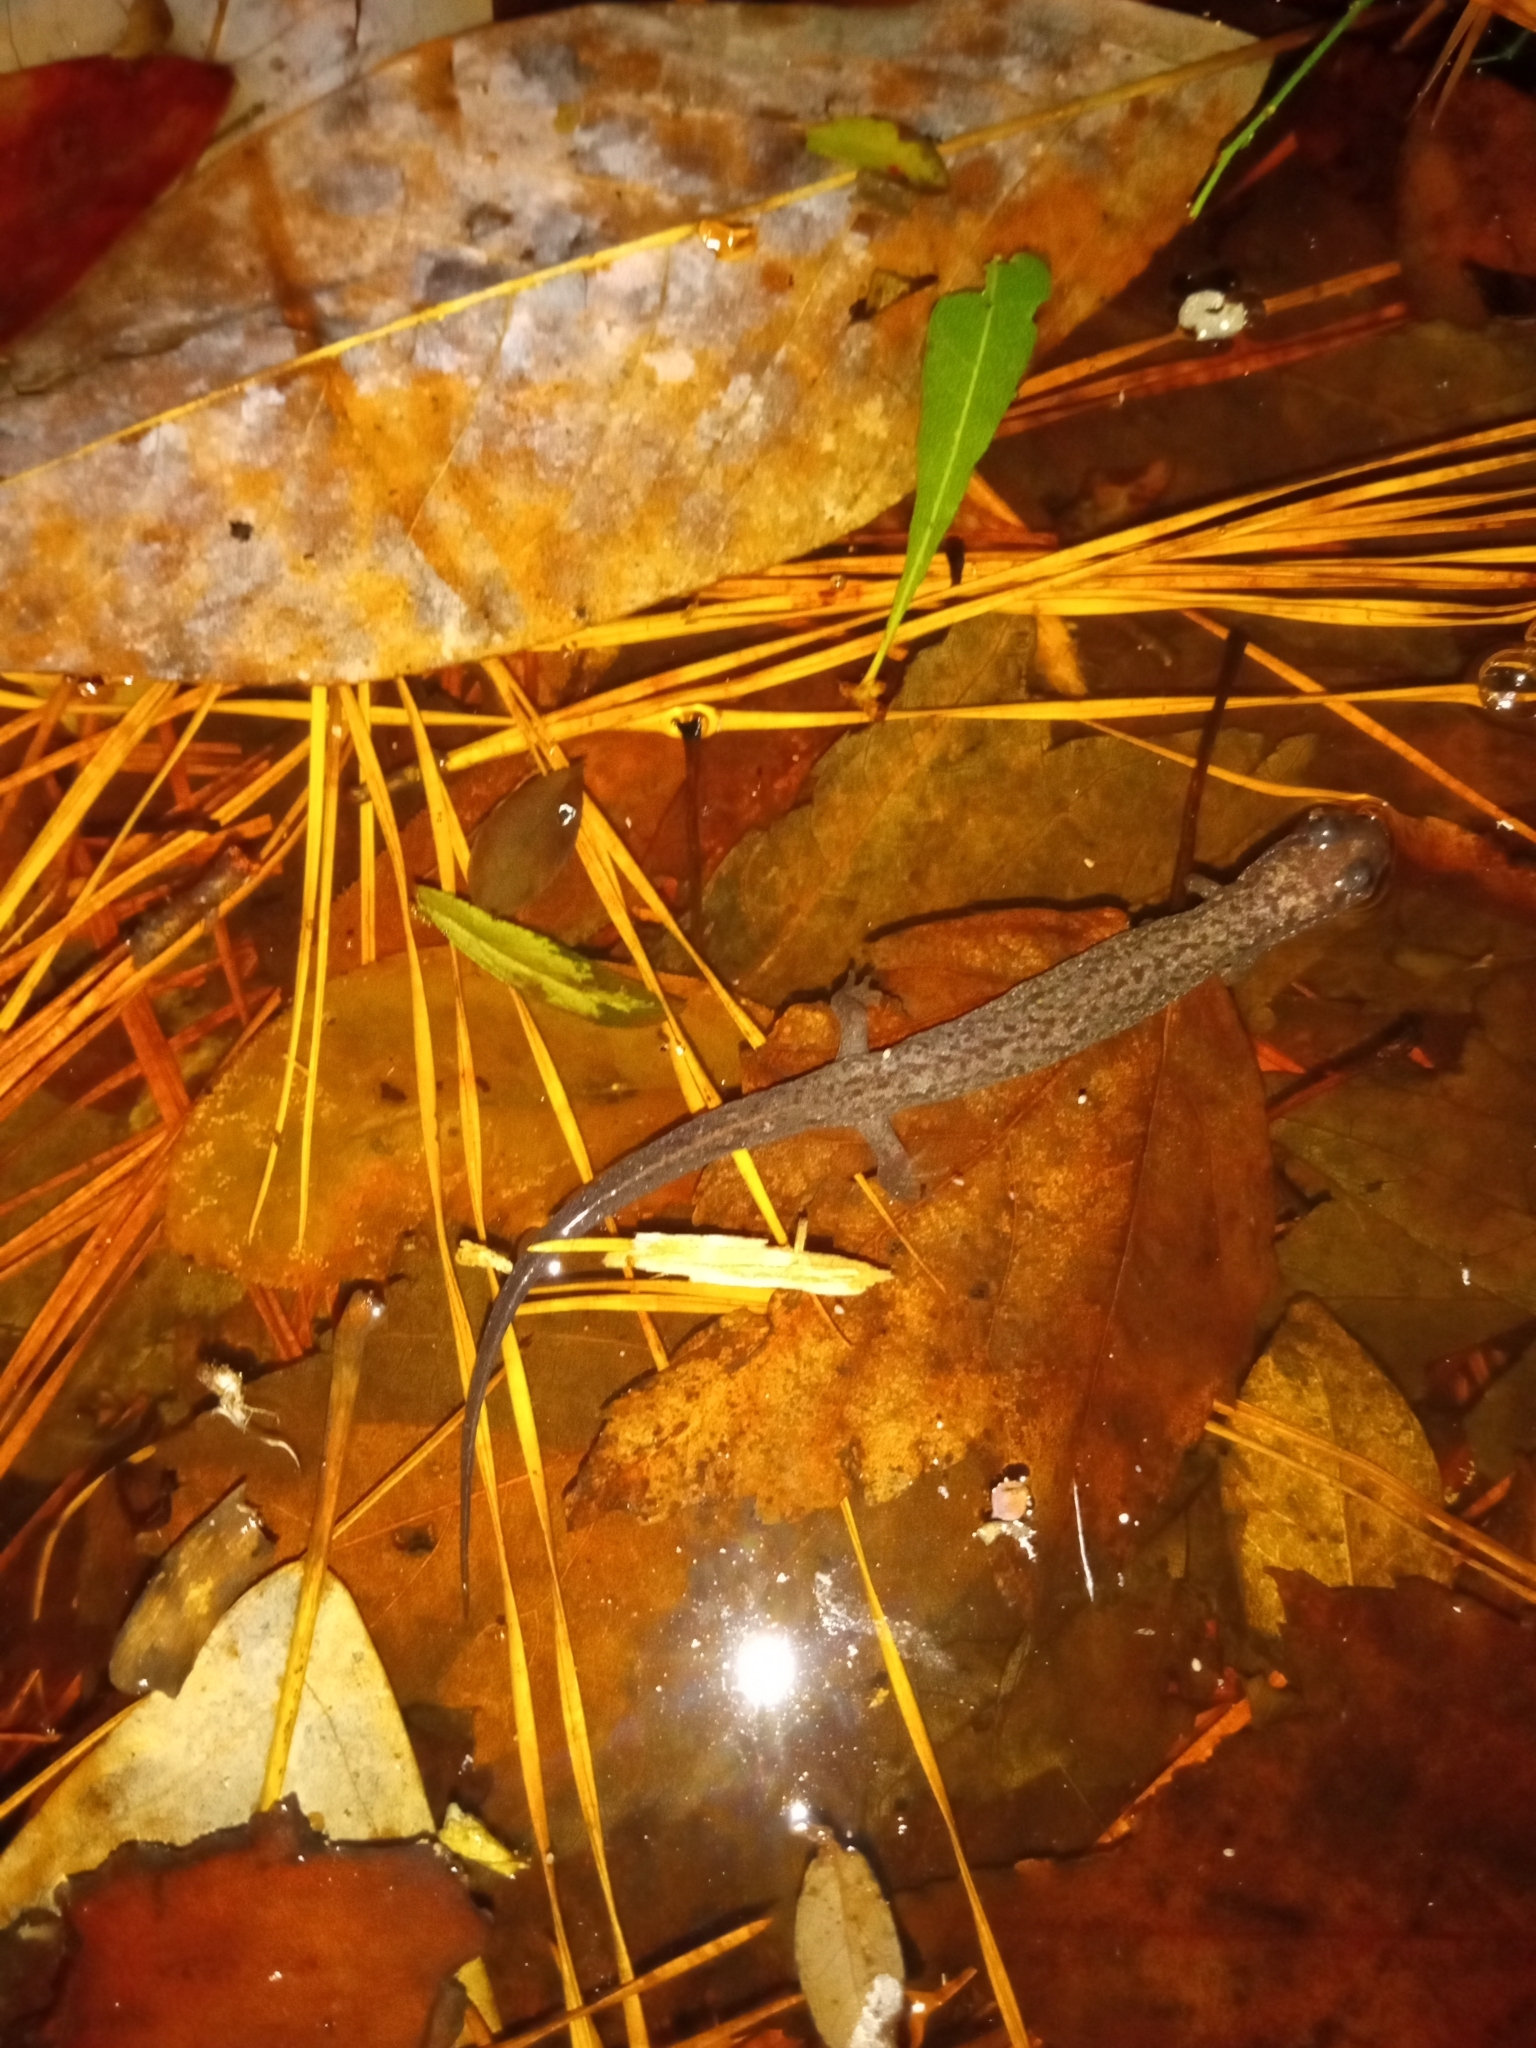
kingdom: Animalia
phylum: Chordata
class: Amphibia
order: Caudata
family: Plethodontidae
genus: Desmognathus
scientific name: Desmognathus
